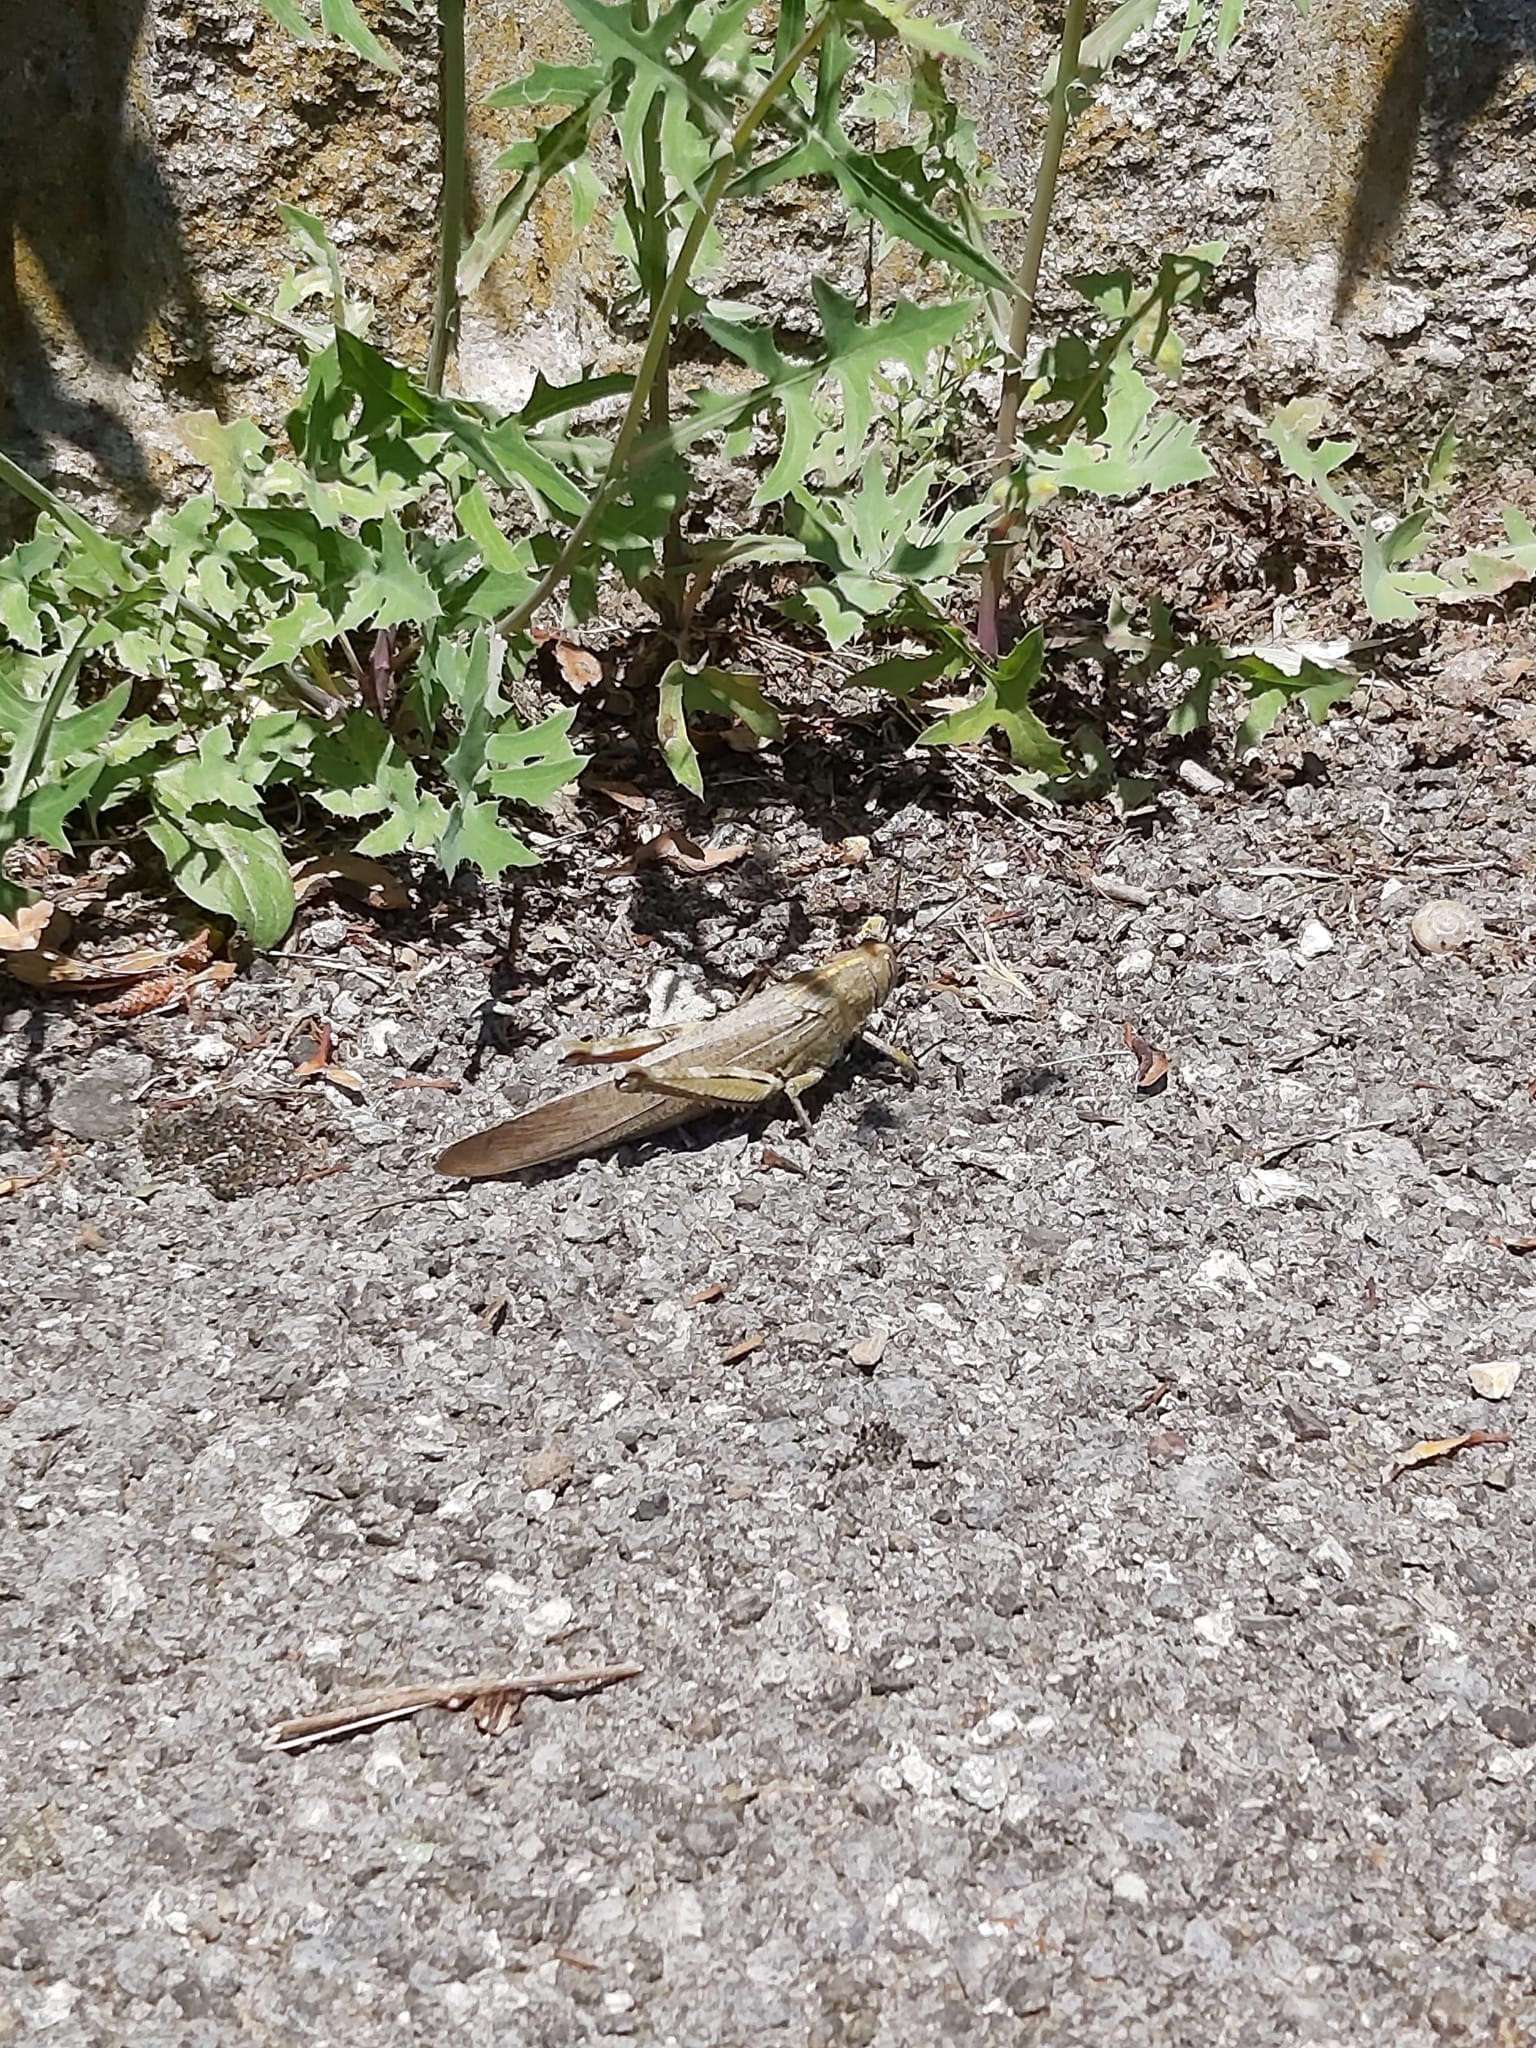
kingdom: Animalia
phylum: Arthropoda
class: Insecta
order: Orthoptera
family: Acrididae
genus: Anacridium
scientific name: Anacridium aegyptium
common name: Egyptian grasshopper
